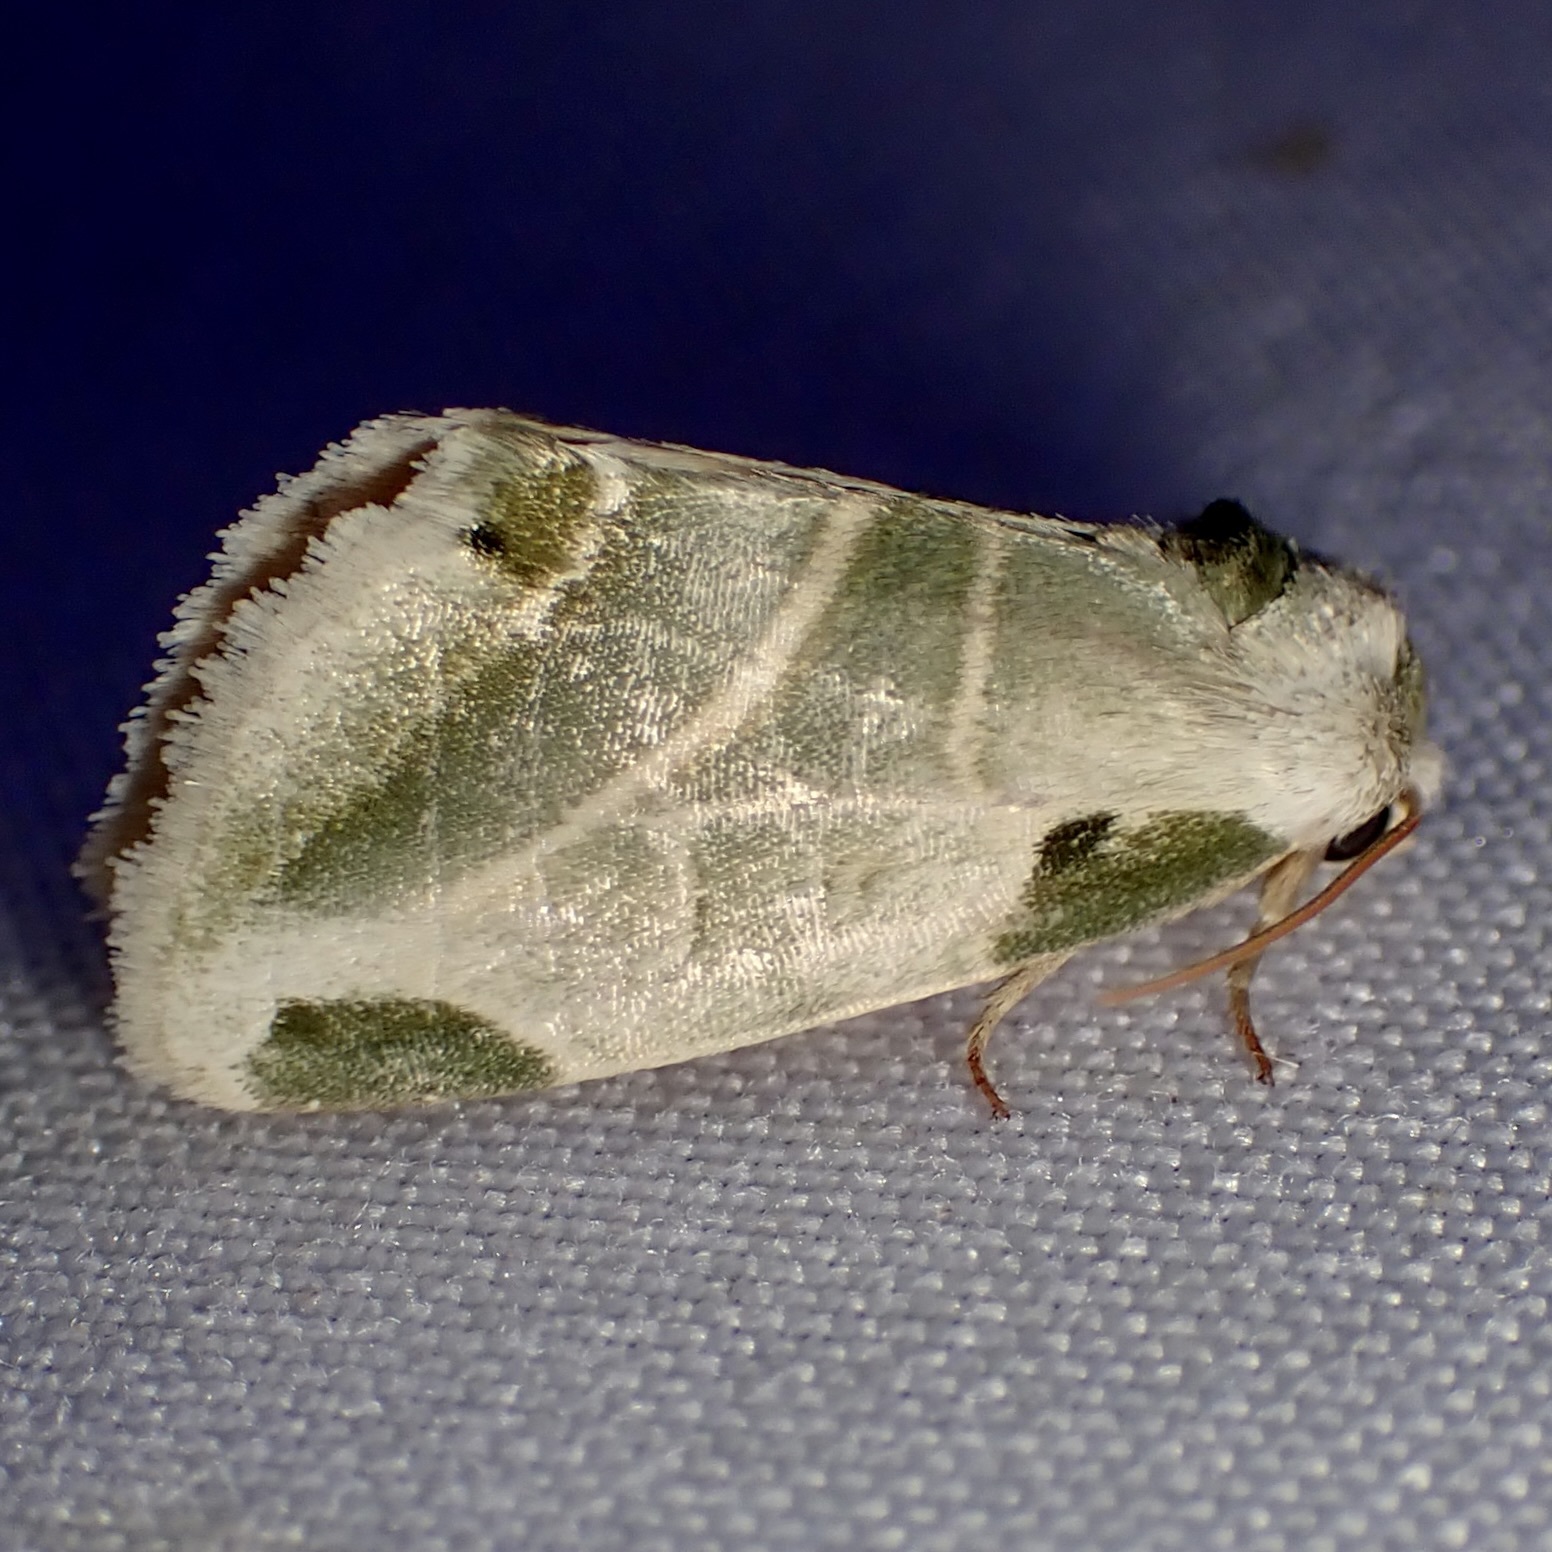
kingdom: Animalia
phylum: Arthropoda
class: Insecta
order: Lepidoptera
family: Noctuidae
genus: Heminocloa
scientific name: Heminocloa mirabilis
